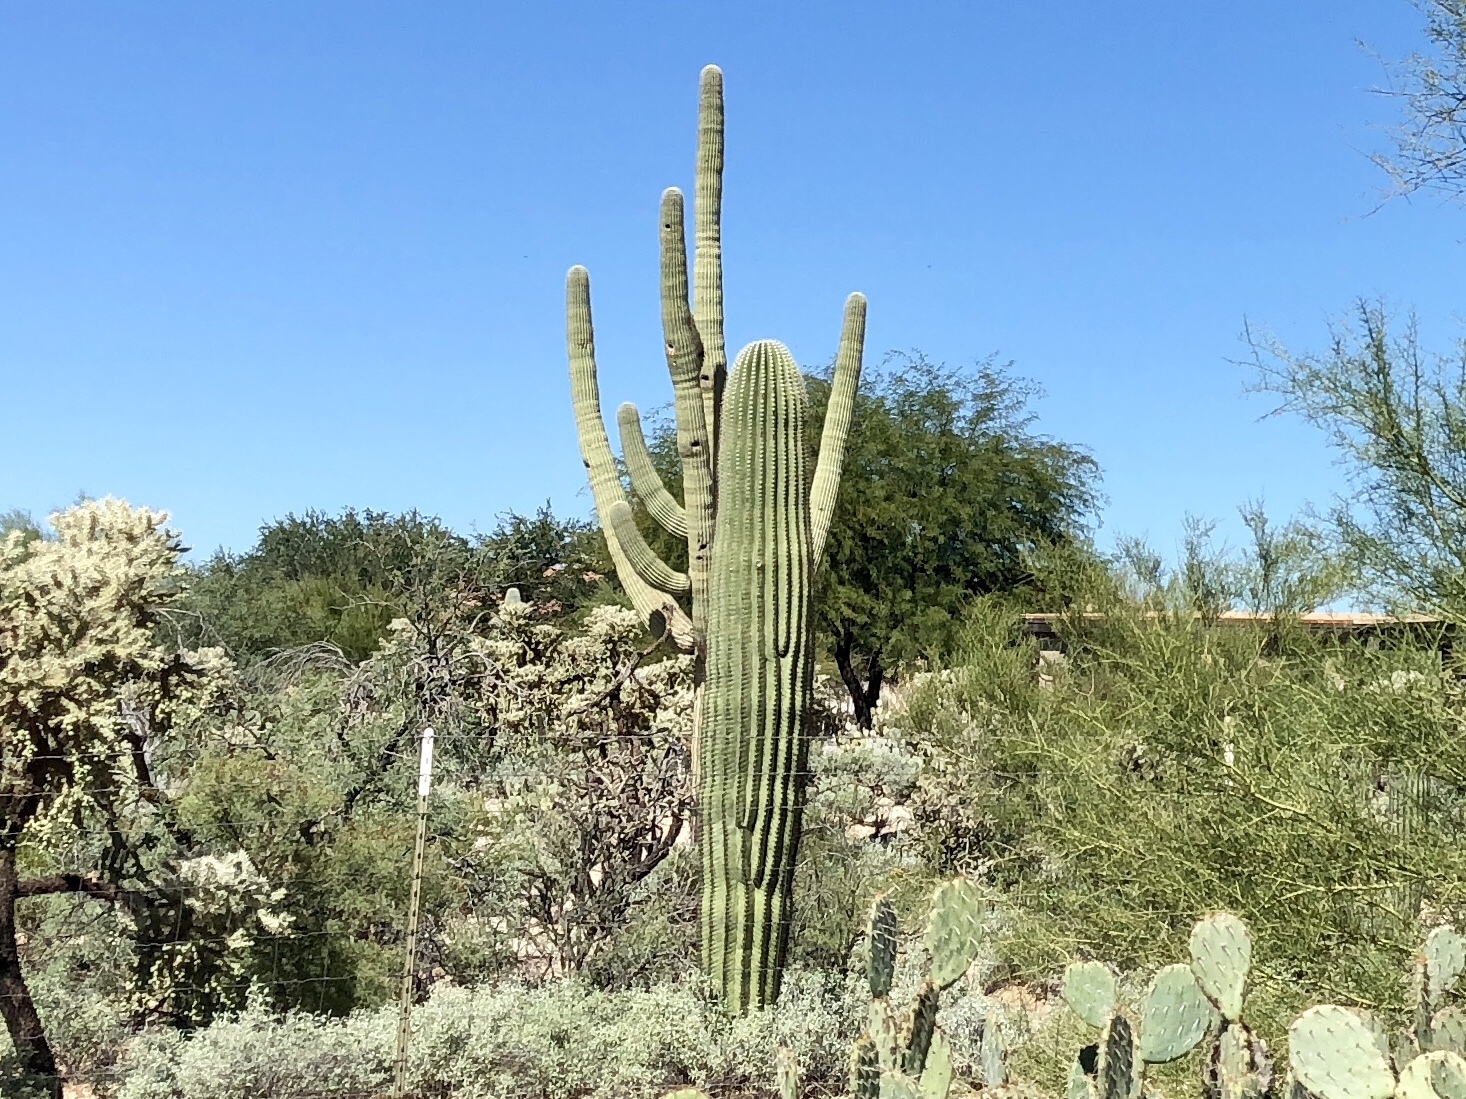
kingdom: Plantae
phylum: Tracheophyta
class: Magnoliopsida
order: Caryophyllales
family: Cactaceae
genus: Carnegiea
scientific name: Carnegiea gigantea
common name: Saguaro
